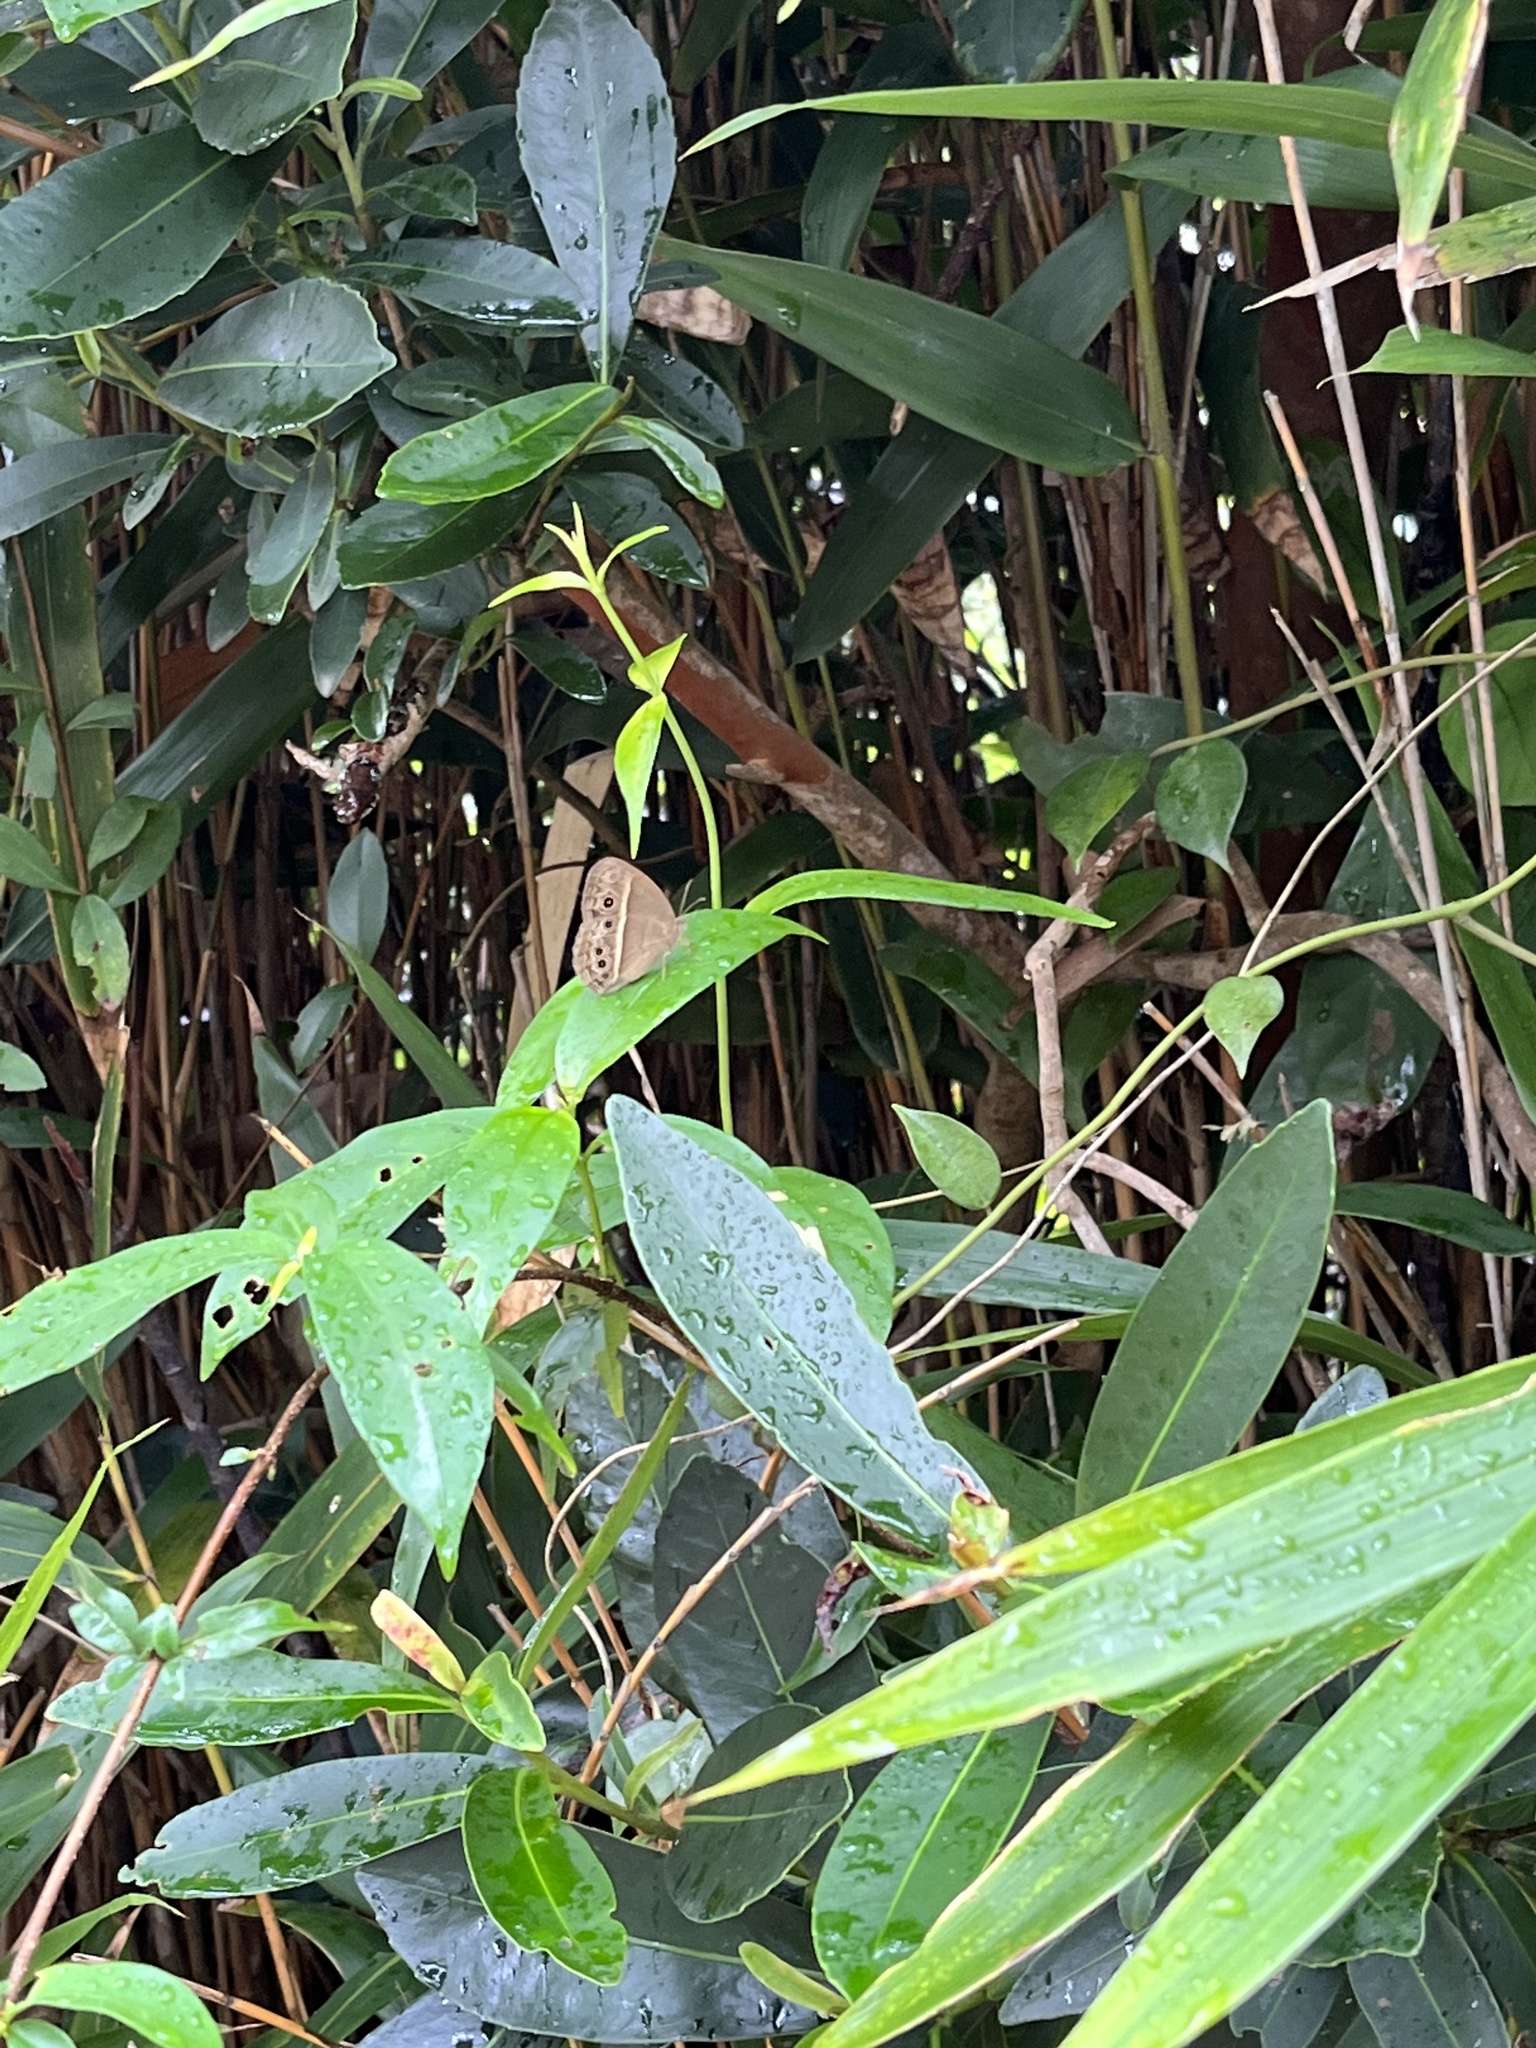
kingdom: Animalia
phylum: Arthropoda
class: Insecta
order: Lepidoptera
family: Nymphalidae
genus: Mycalesis
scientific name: Mycalesis mineus
